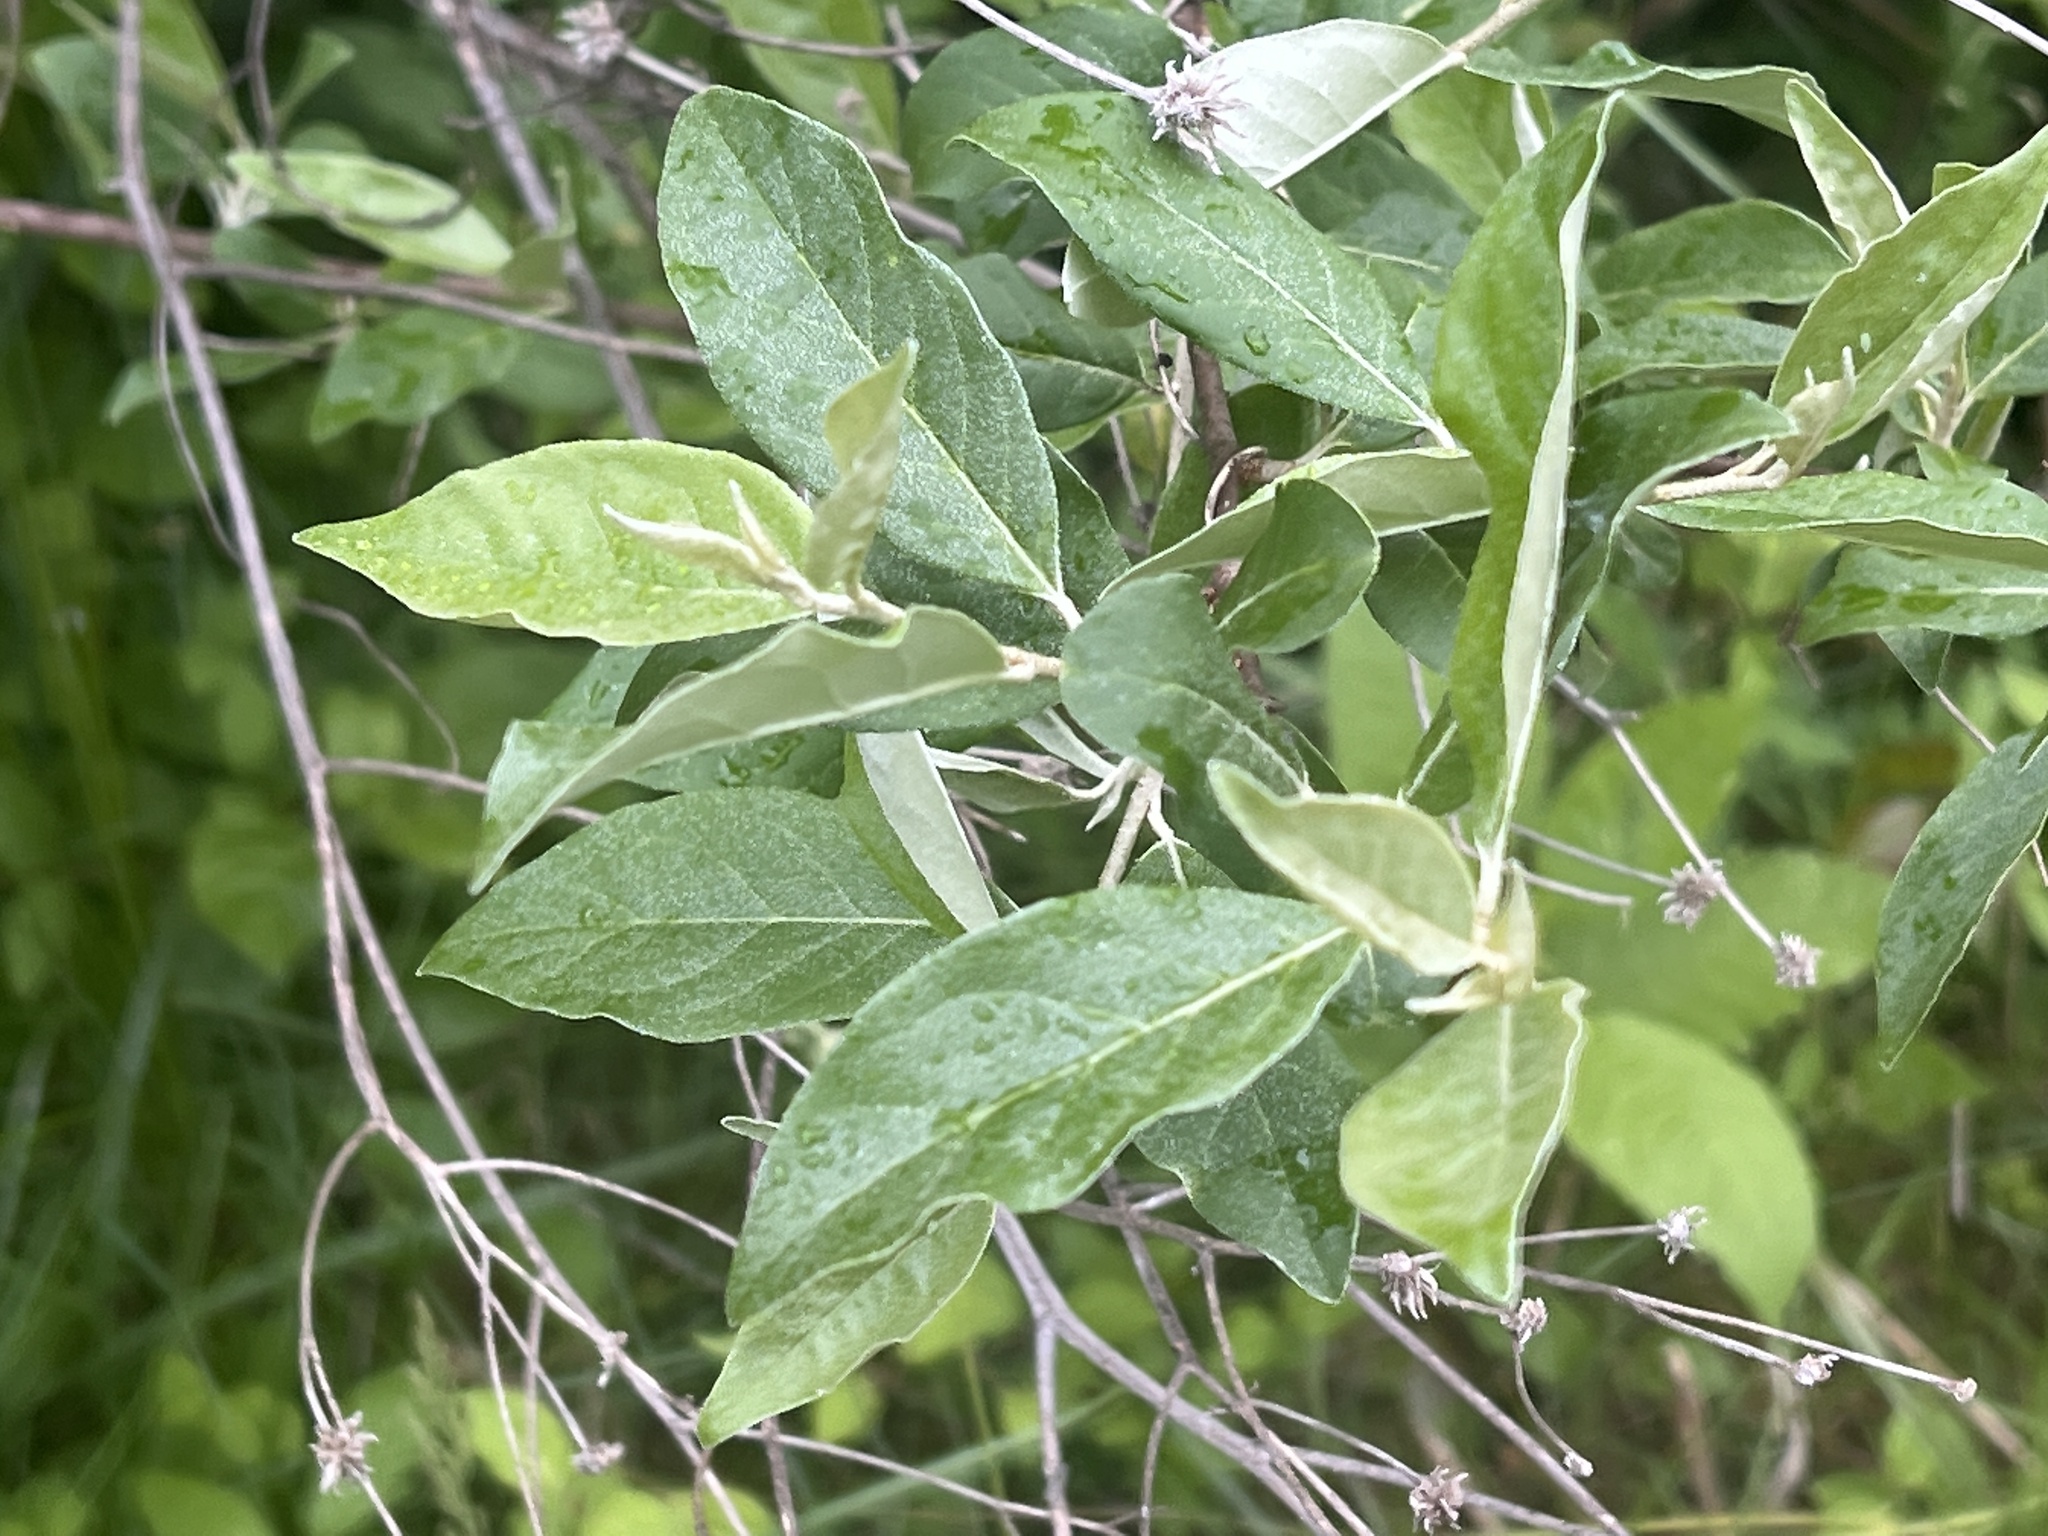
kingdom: Plantae
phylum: Tracheophyta
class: Magnoliopsida
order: Rosales
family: Elaeagnaceae
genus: Elaeagnus
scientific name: Elaeagnus umbellata
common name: Autumn olive
